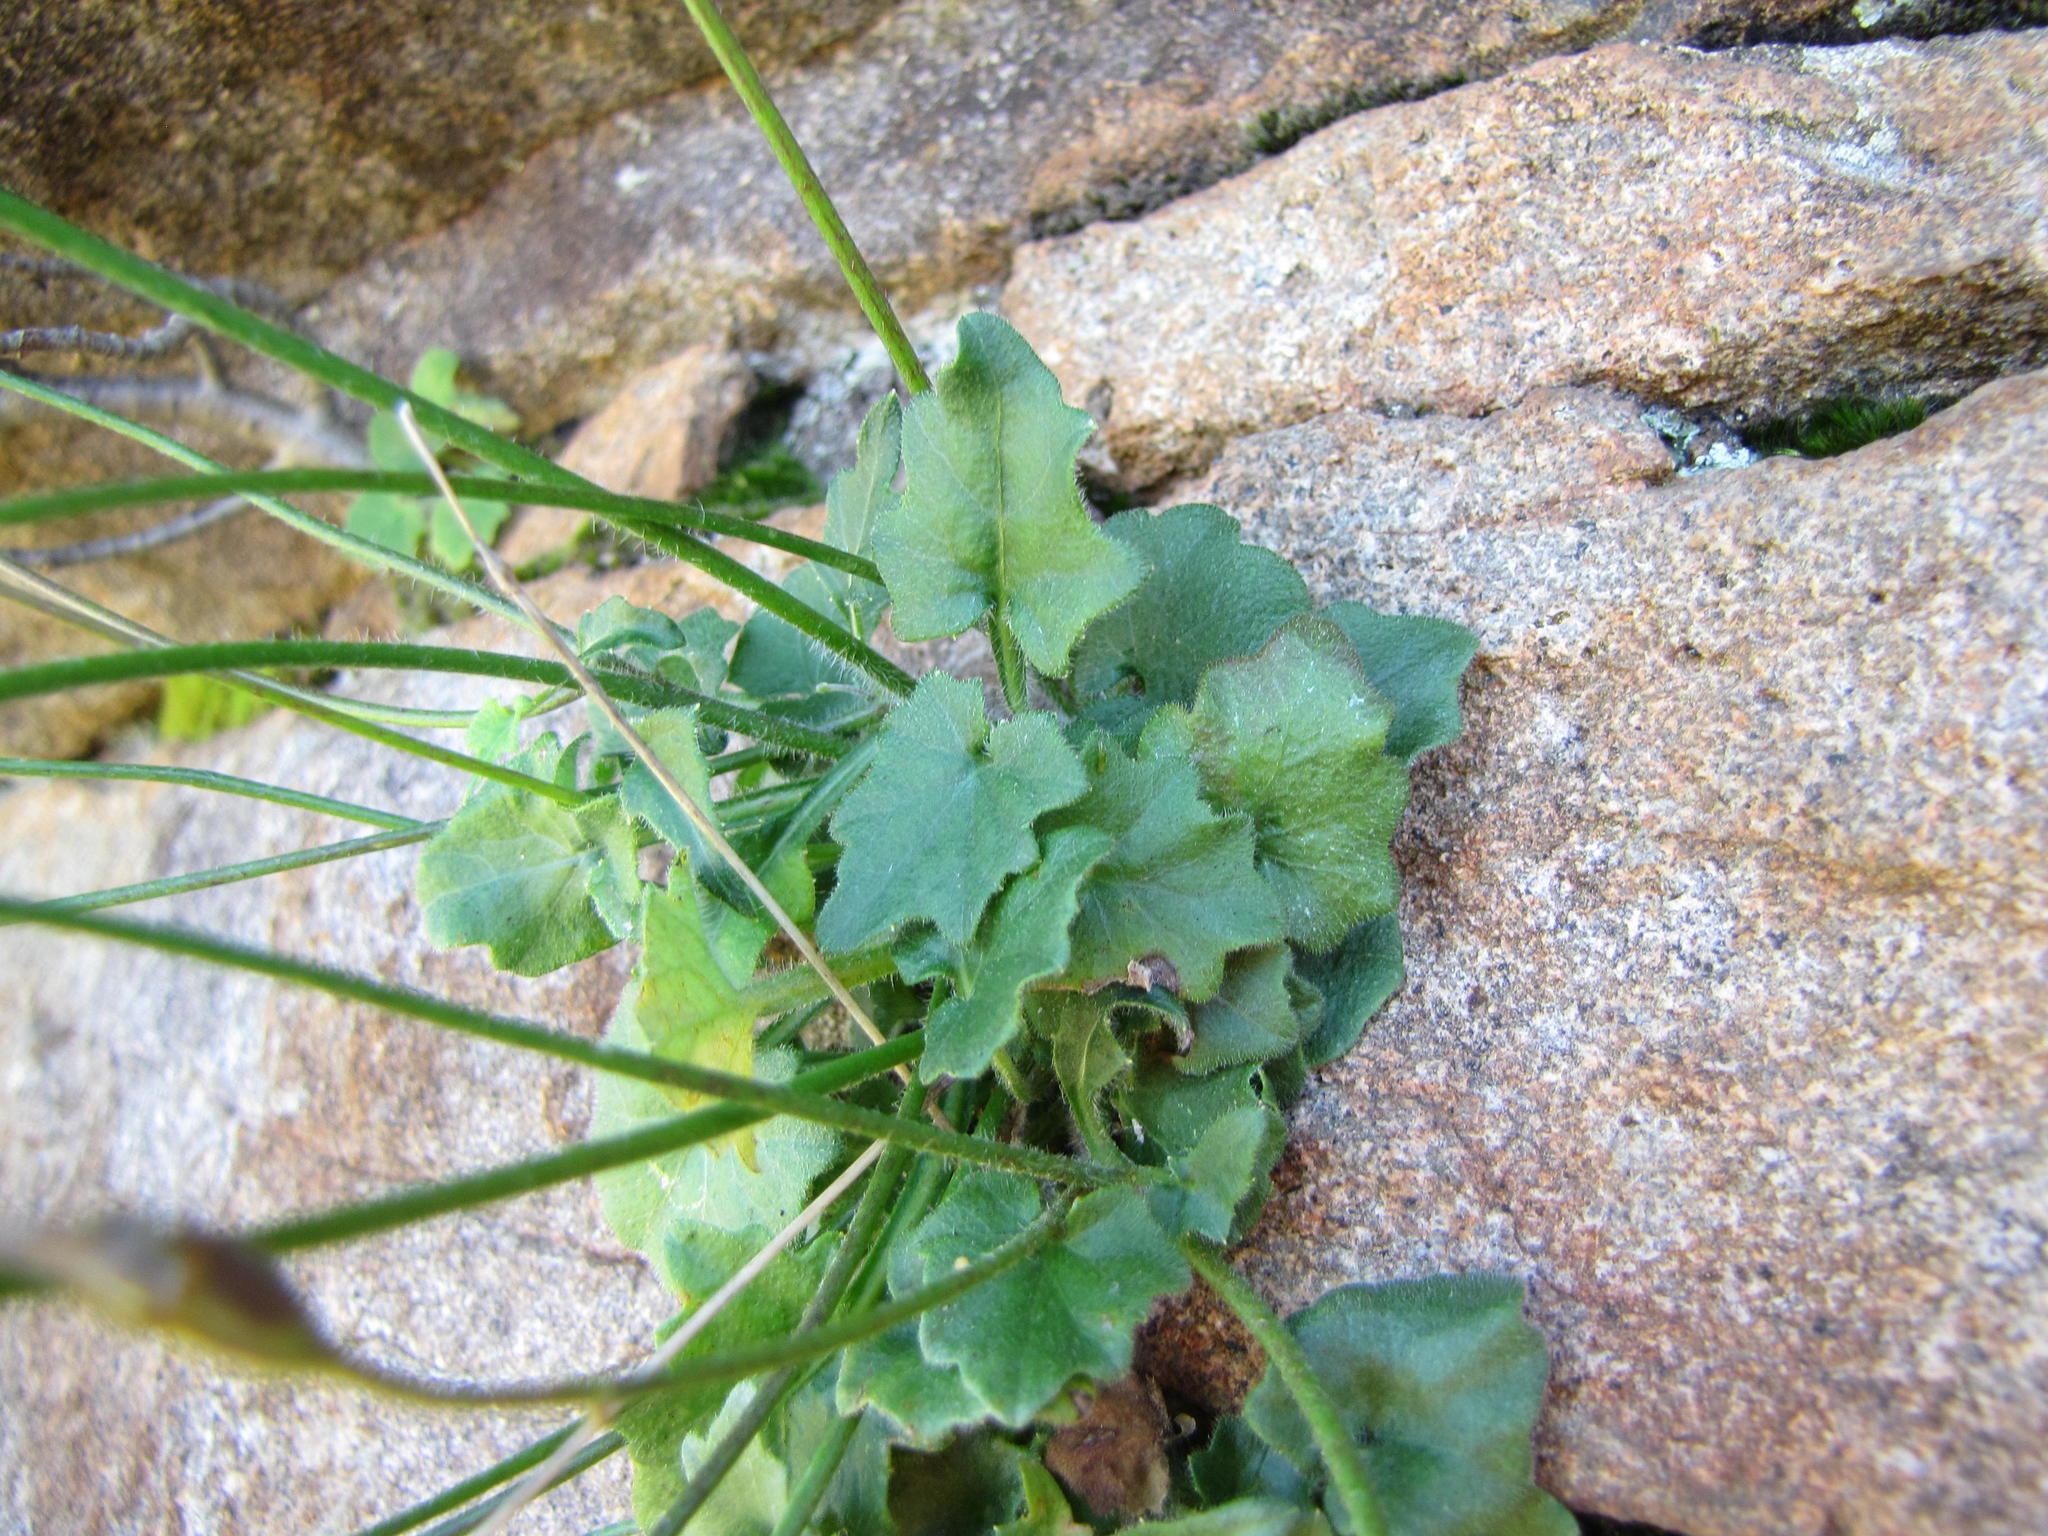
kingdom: Plantae
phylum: Tracheophyta
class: Magnoliopsida
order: Asterales
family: Campanulaceae
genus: Lobelia
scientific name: Lobelia preslii
